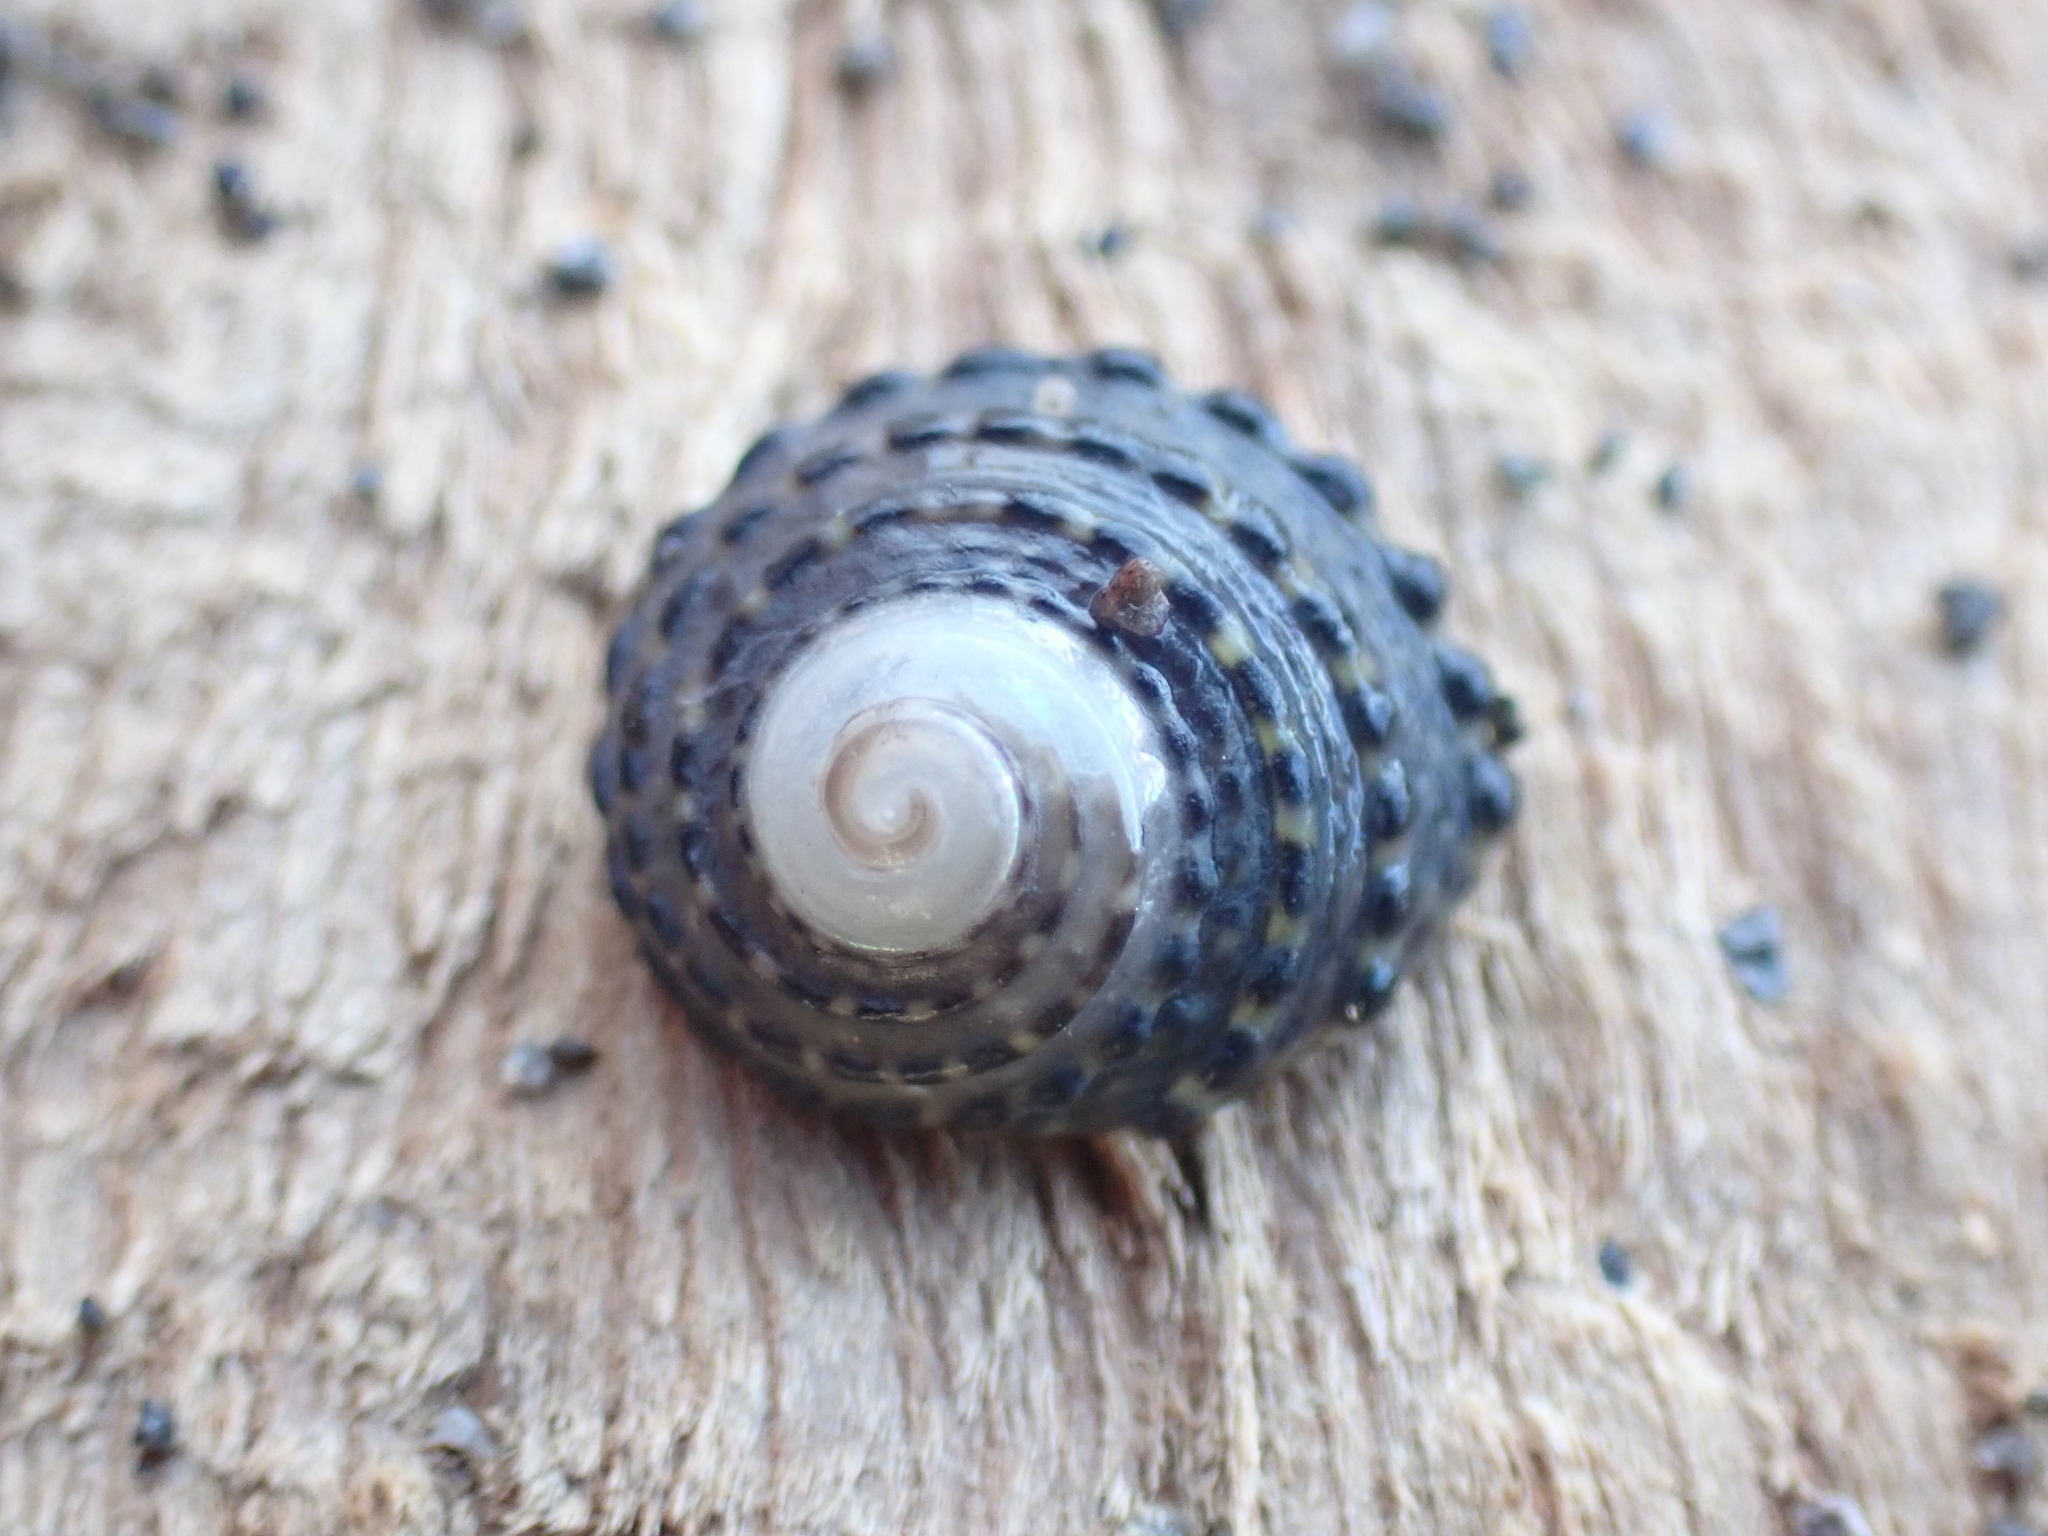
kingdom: Animalia
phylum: Mollusca
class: Gastropoda
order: Trochida
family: Trochidae
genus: Diloma
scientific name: Diloma bicanaliculatum
